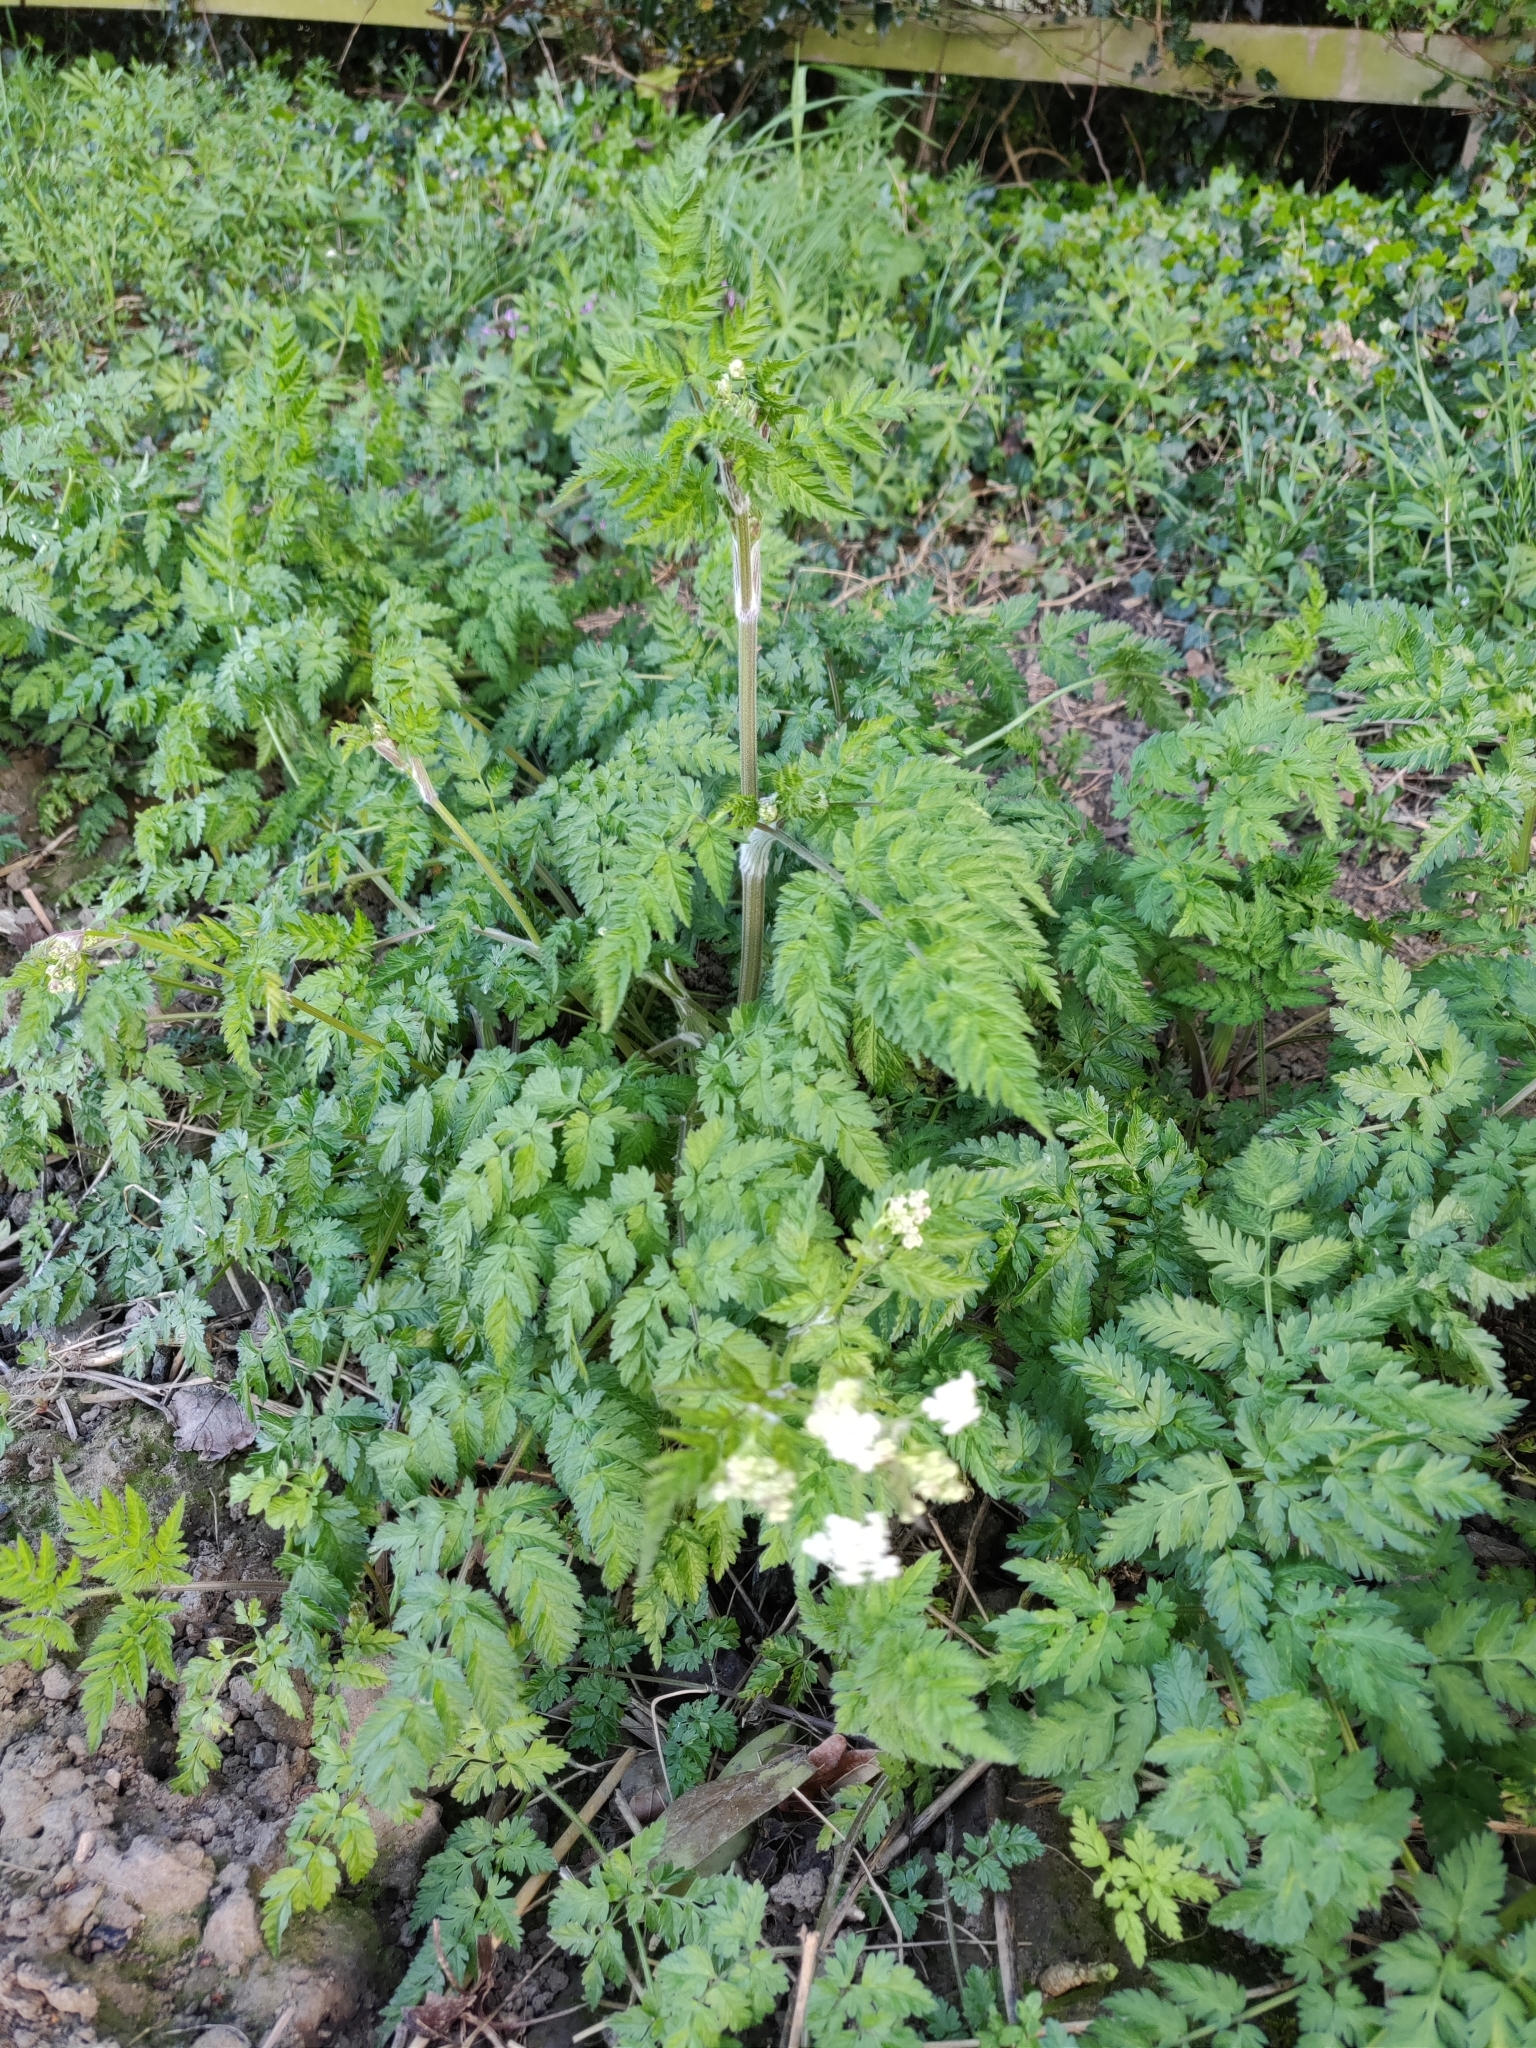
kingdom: Plantae
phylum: Tracheophyta
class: Magnoliopsida
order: Apiales
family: Apiaceae
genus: Anthriscus
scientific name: Anthriscus sylvestris
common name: Cow parsley
